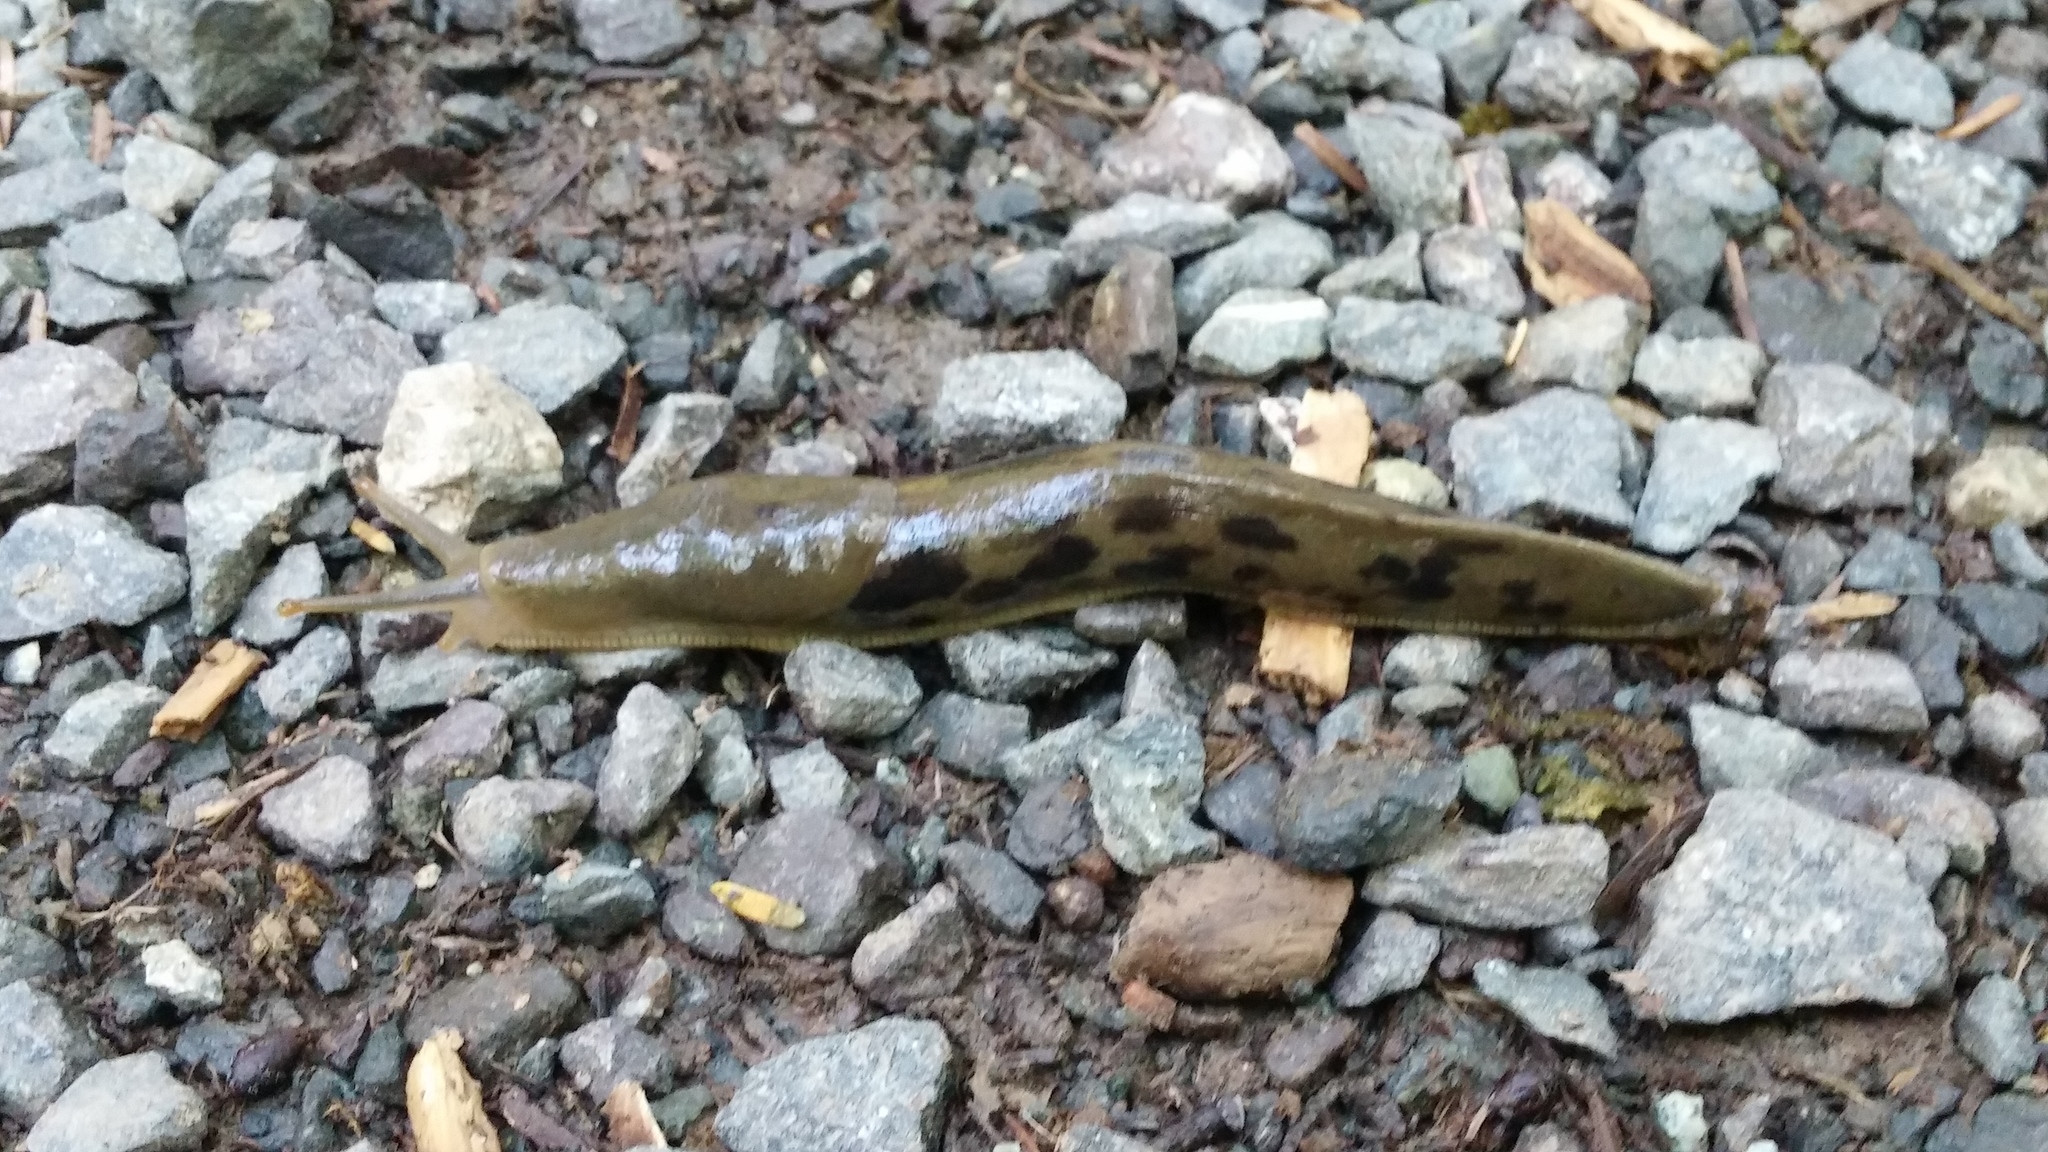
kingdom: Animalia
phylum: Mollusca
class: Gastropoda
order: Stylommatophora
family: Ariolimacidae
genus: Ariolimax
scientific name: Ariolimax columbianus
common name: Pacific banana slug
